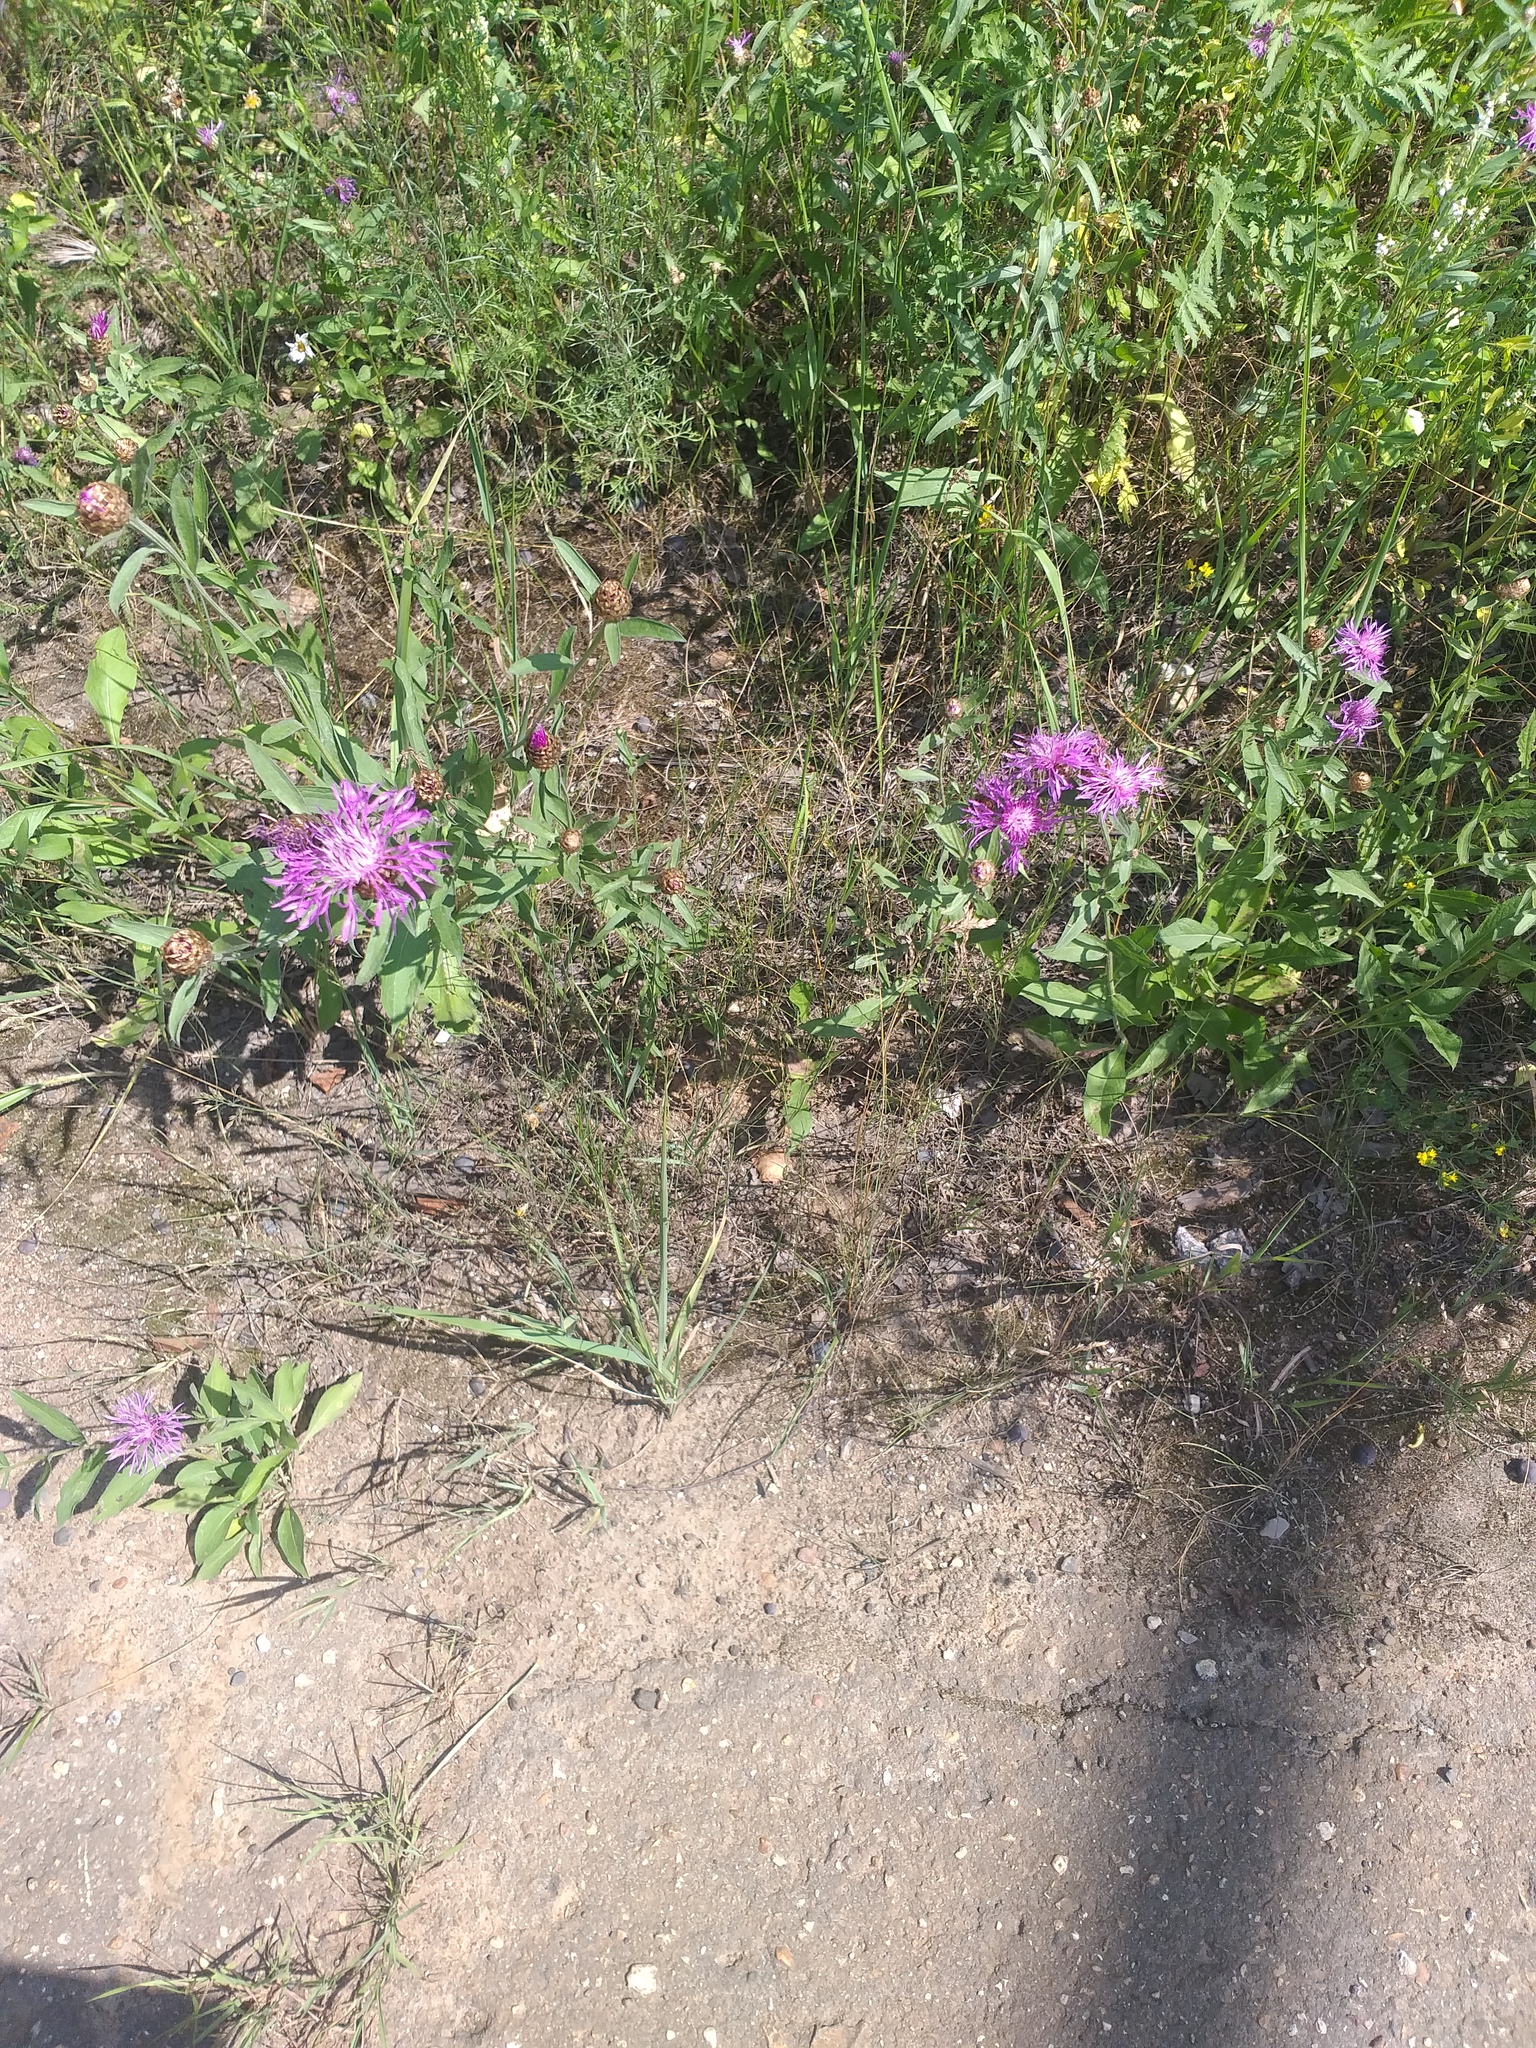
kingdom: Plantae
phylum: Tracheophyta
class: Magnoliopsida
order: Asterales
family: Asteraceae
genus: Centaurea
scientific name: Centaurea jacea
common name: Brown knapweed
